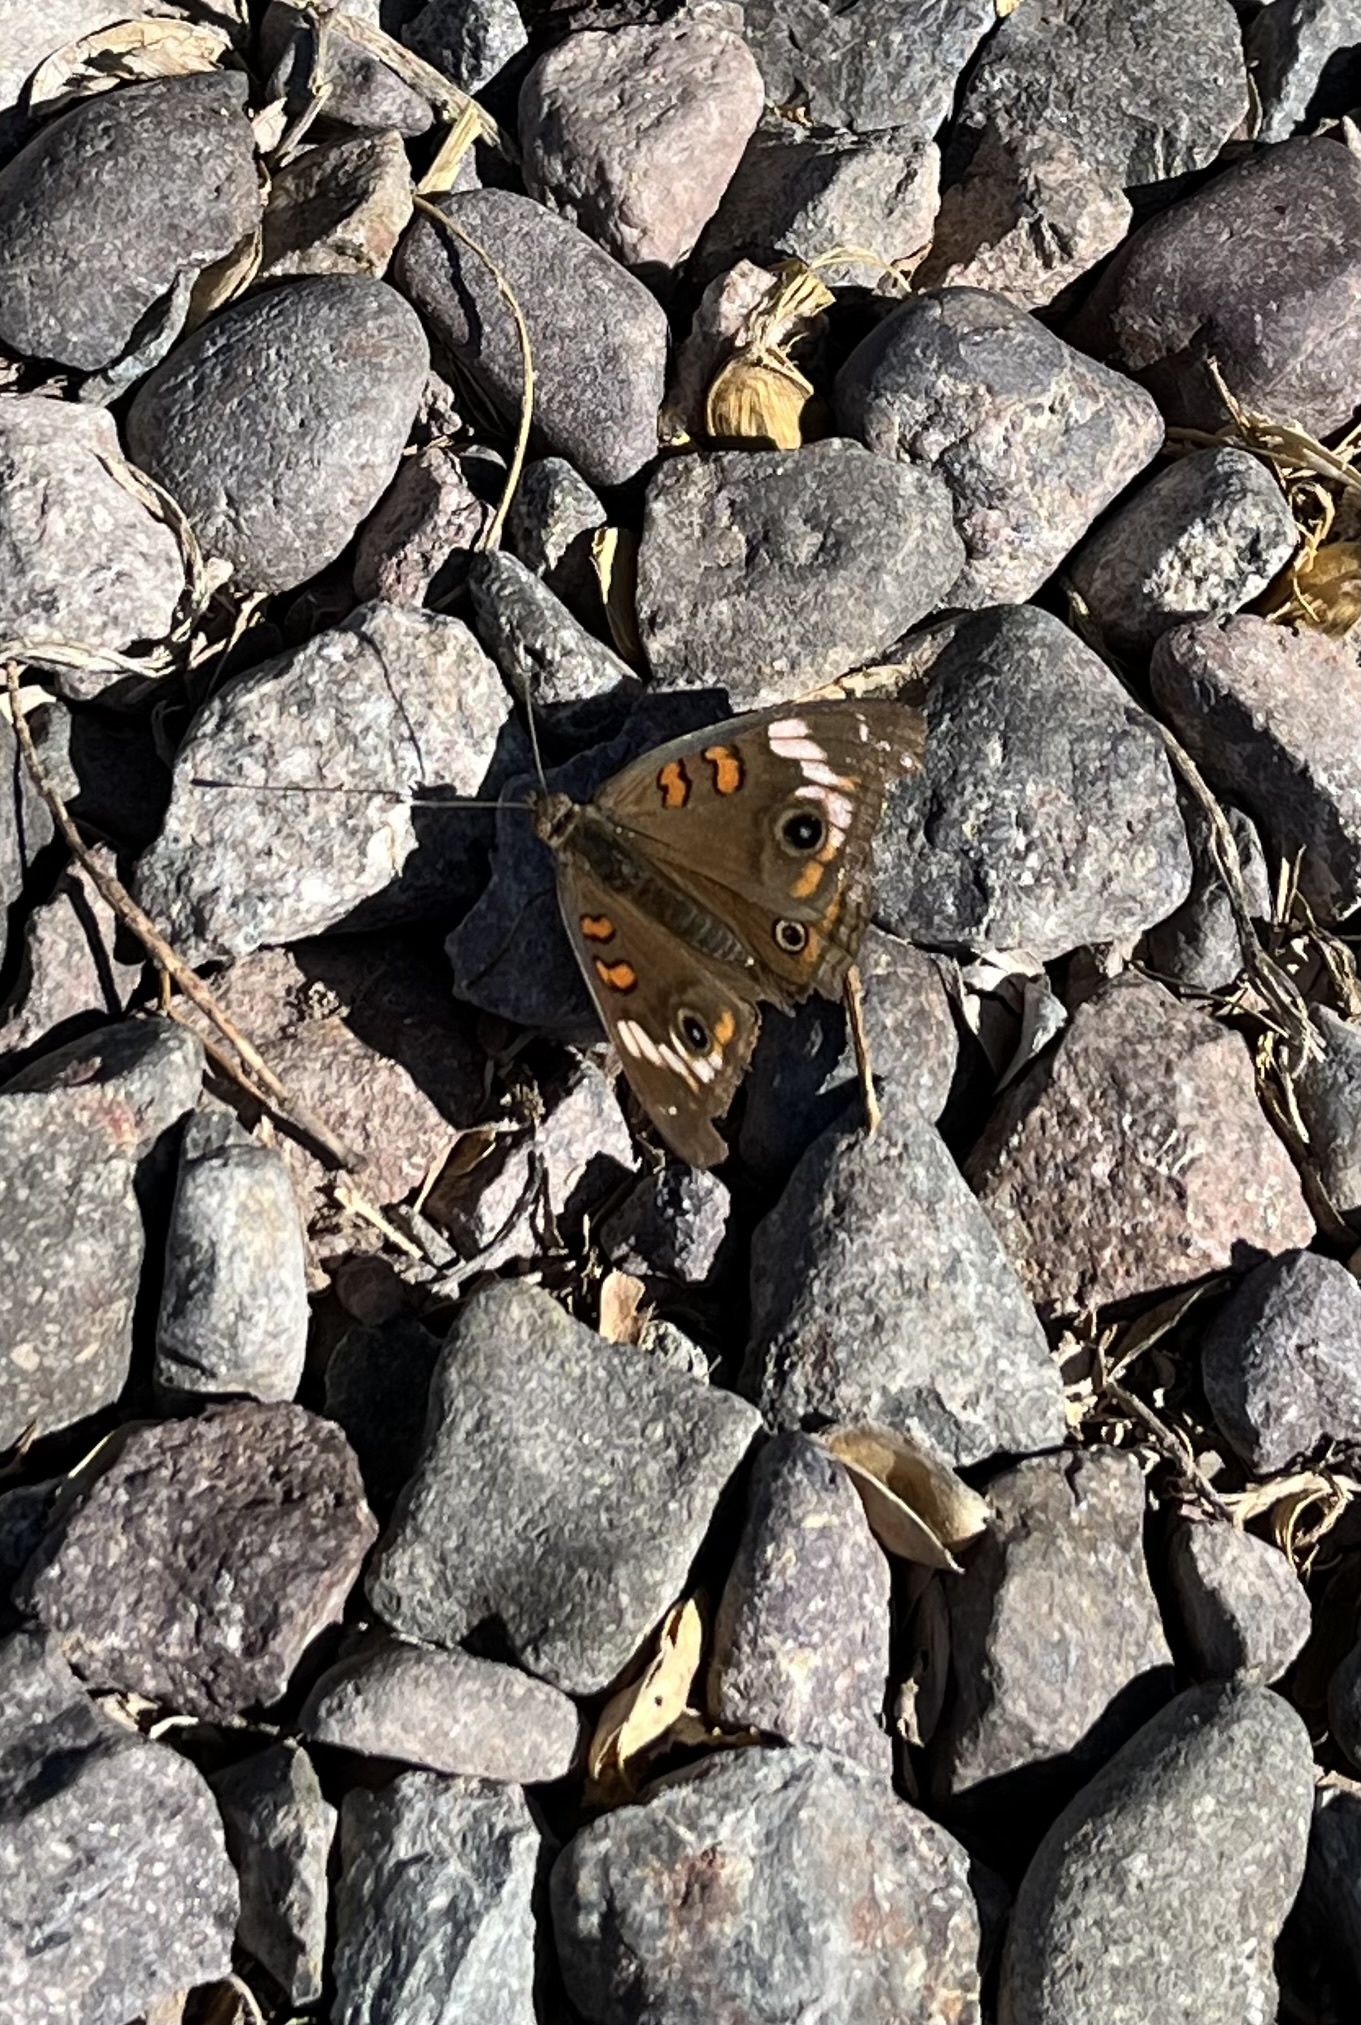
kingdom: Animalia
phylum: Arthropoda
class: Insecta
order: Lepidoptera
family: Nymphalidae
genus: Junonia
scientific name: Junonia pacoma
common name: Pacific mangrove buckeye
